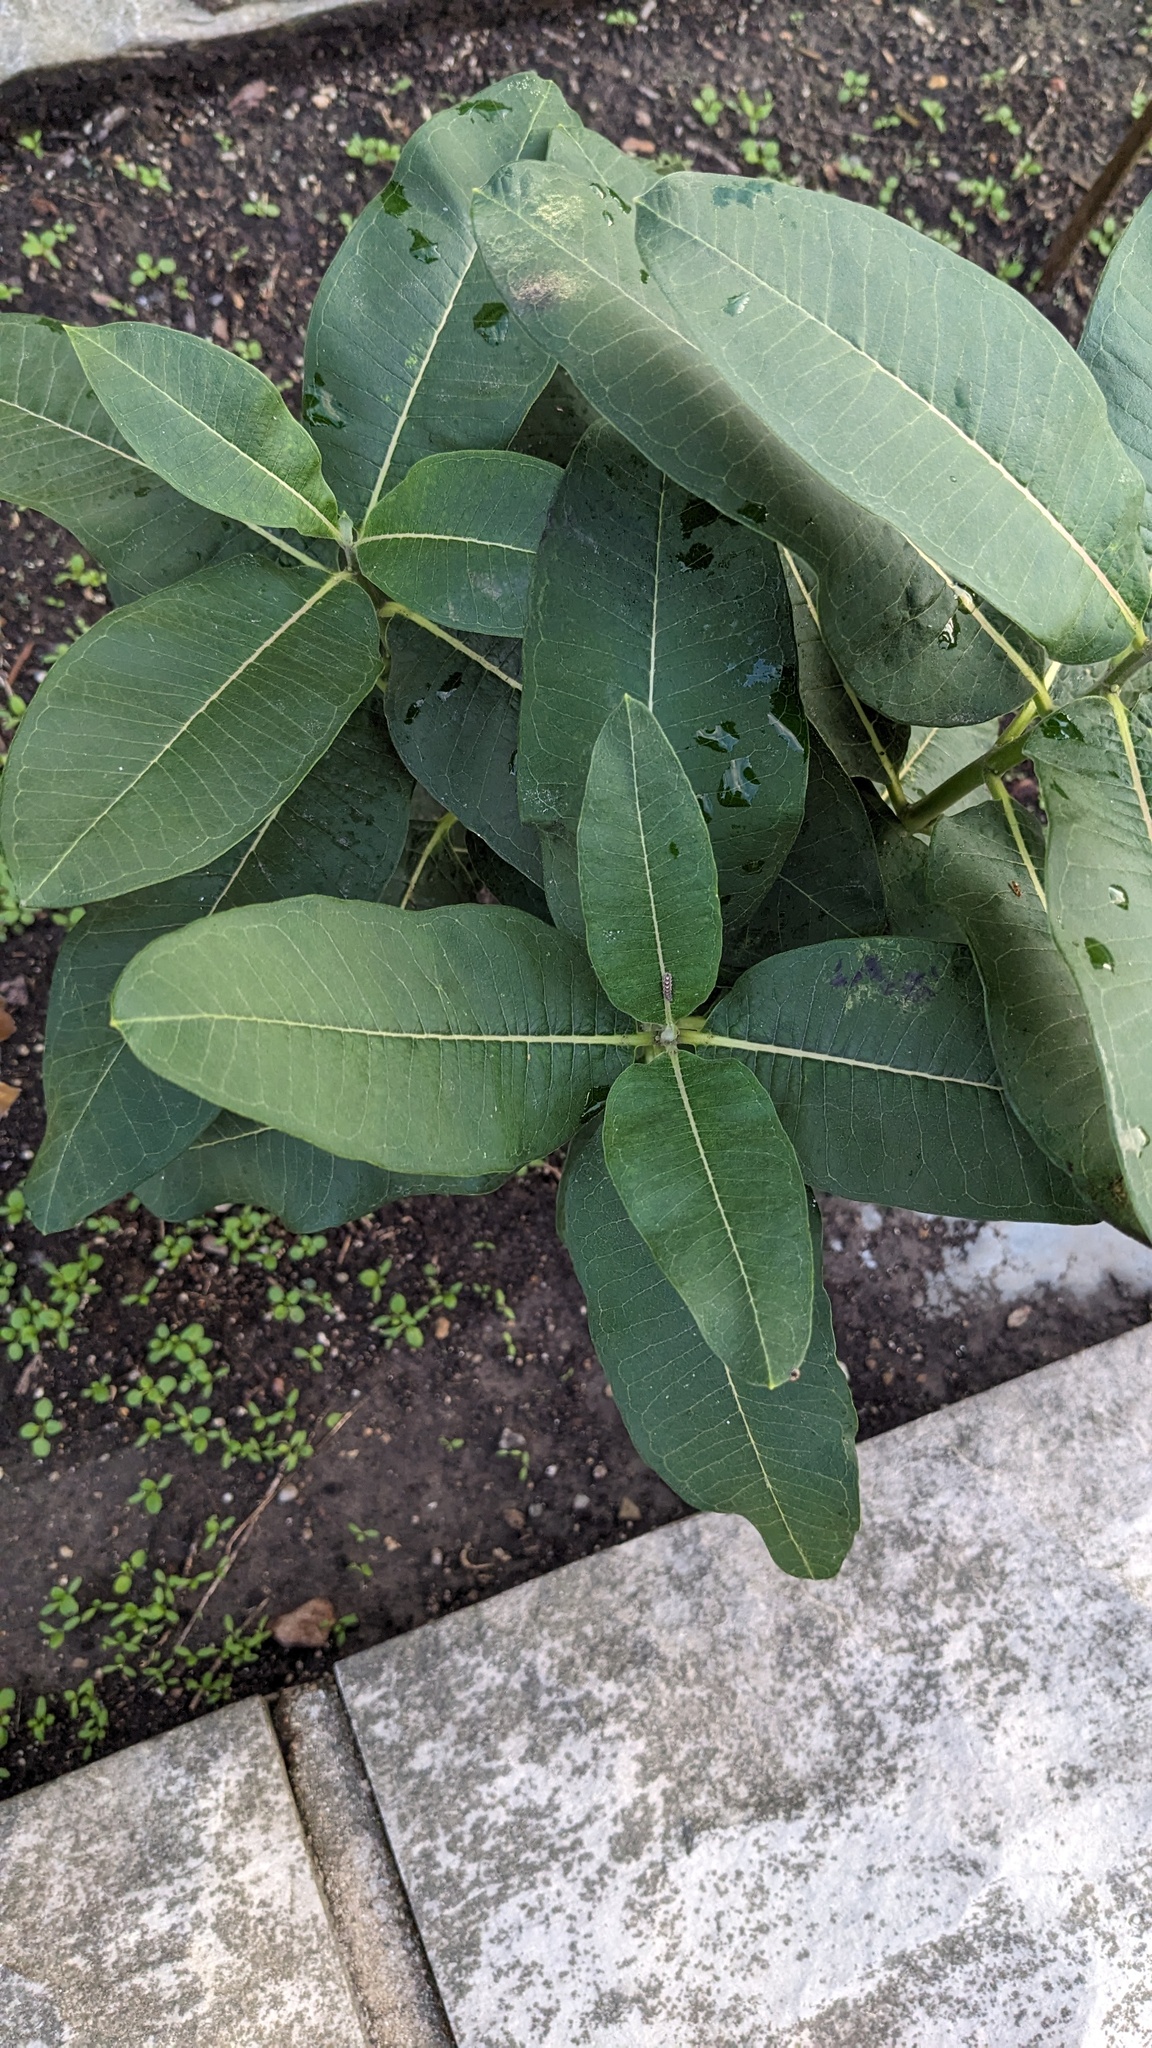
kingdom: Plantae
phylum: Tracheophyta
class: Magnoliopsida
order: Gentianales
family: Apocynaceae
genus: Asclepias
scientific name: Asclepias syriaca
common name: Common milkweed
